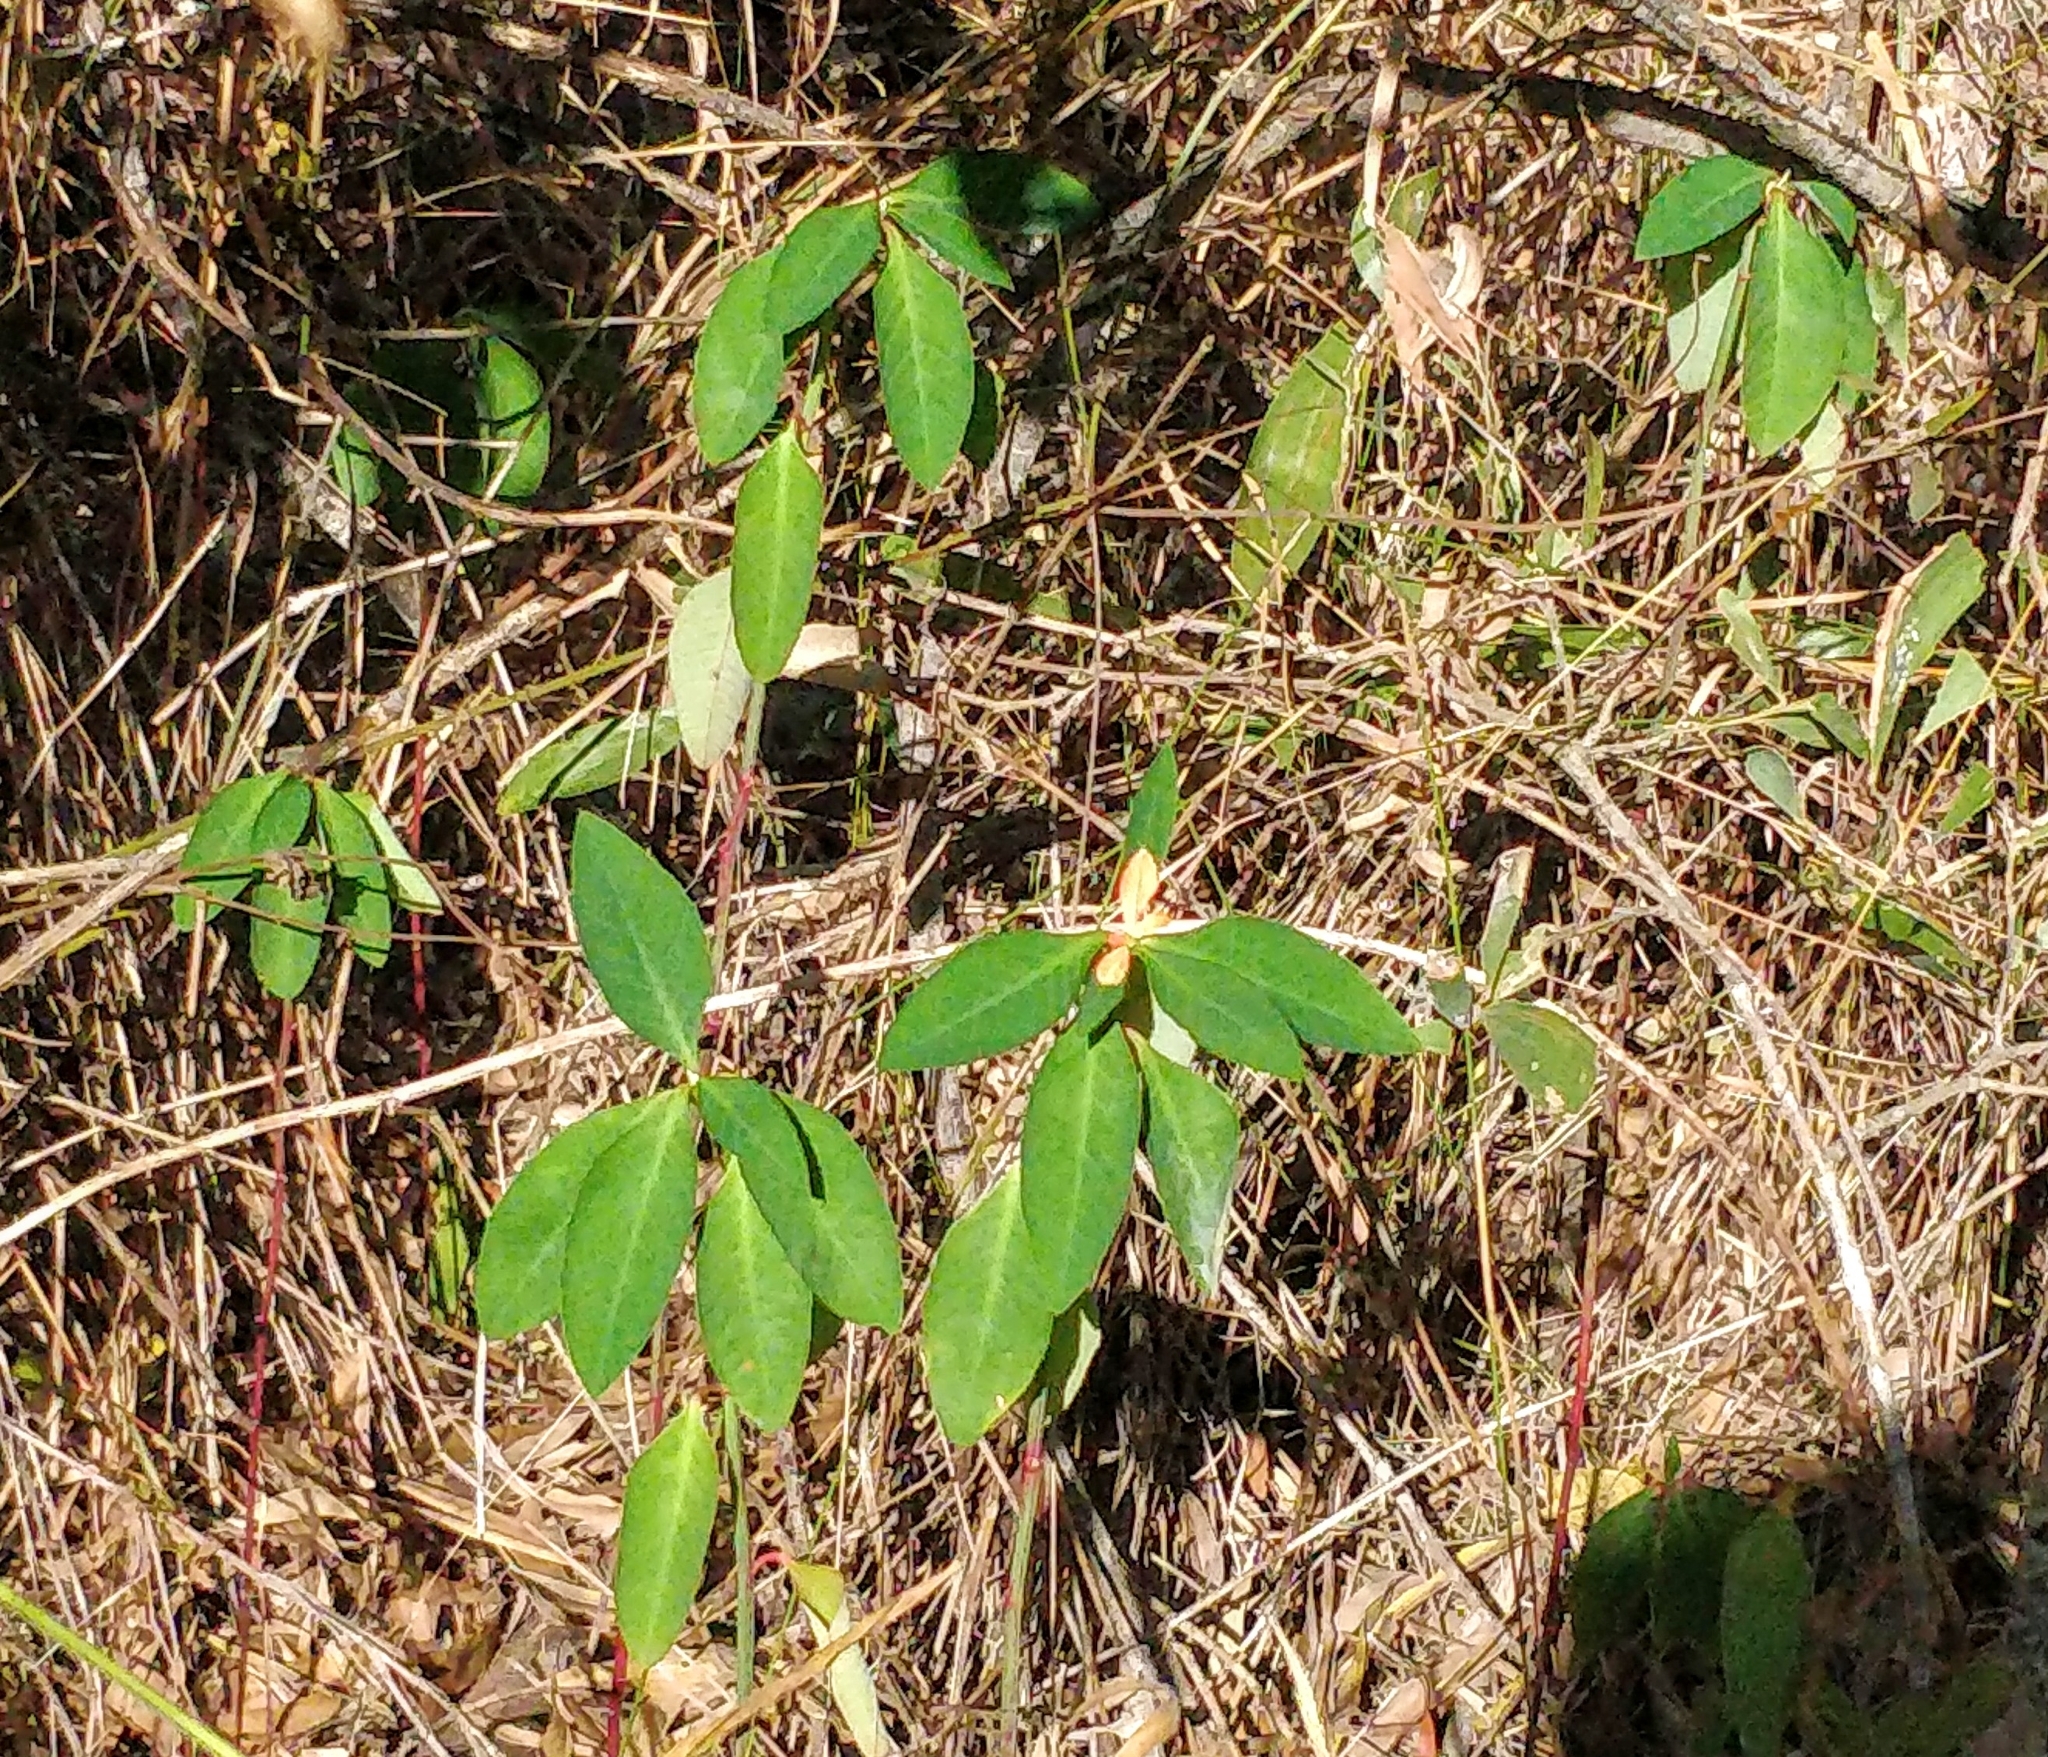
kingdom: Plantae
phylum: Tracheophyta
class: Magnoliopsida
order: Malpighiales
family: Euphorbiaceae
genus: Euphorbia
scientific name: Euphorbia heterophylla
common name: Mexican fireplant
